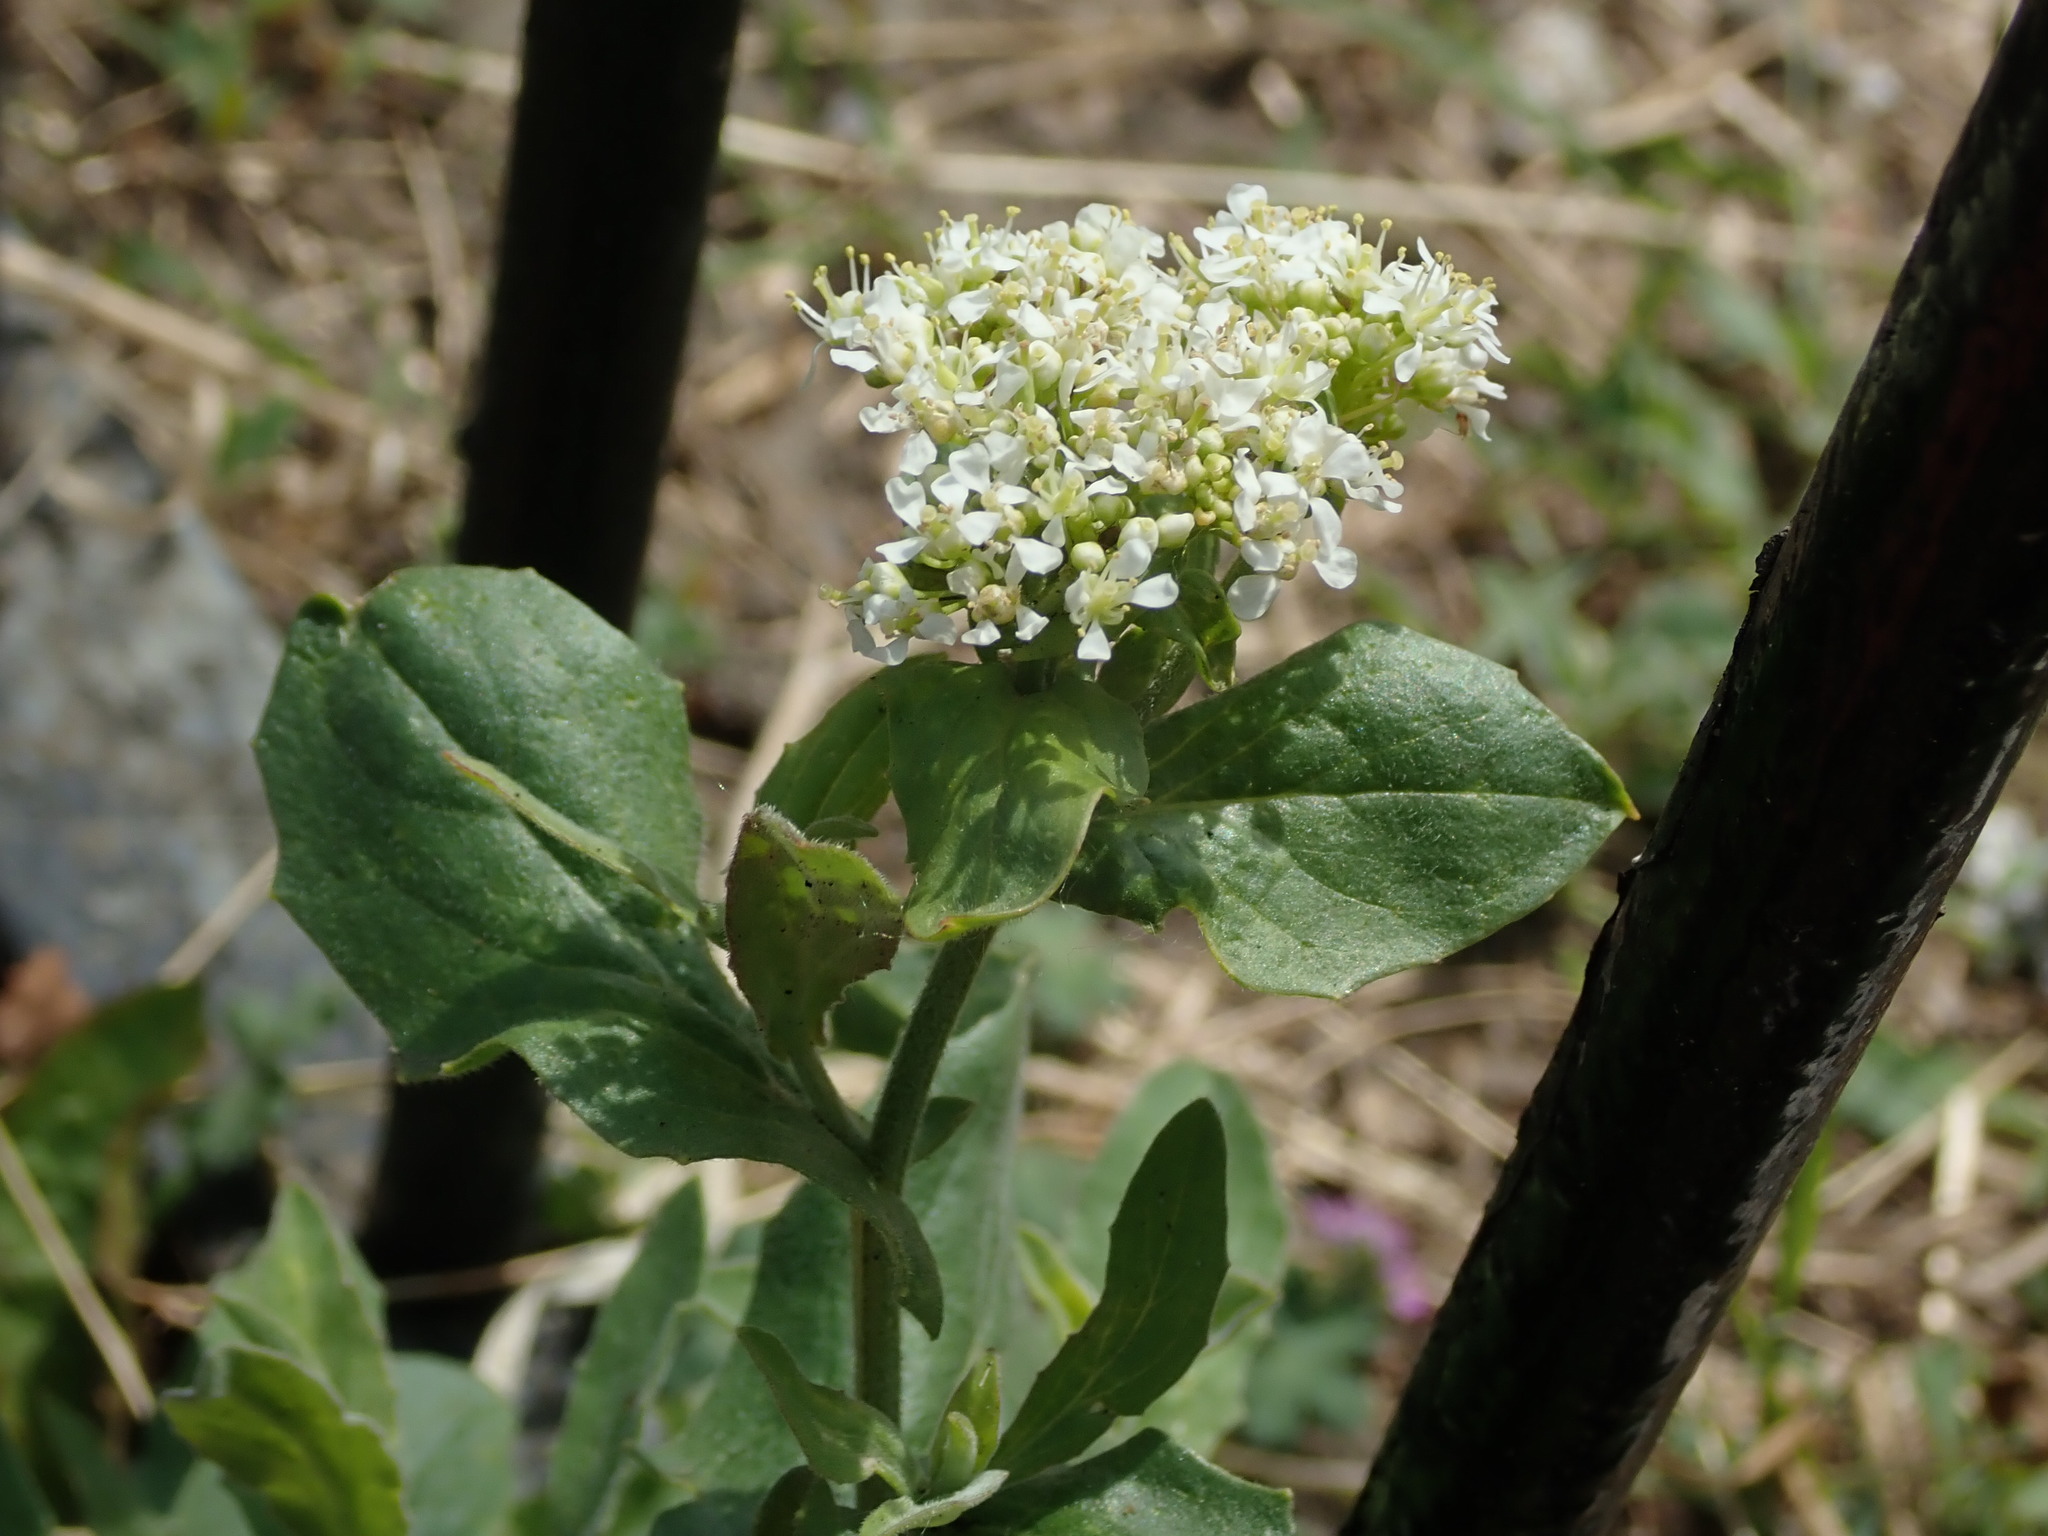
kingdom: Plantae
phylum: Tracheophyta
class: Magnoliopsida
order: Brassicales
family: Brassicaceae
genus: Lepidium
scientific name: Lepidium draba
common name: Hoary cress
